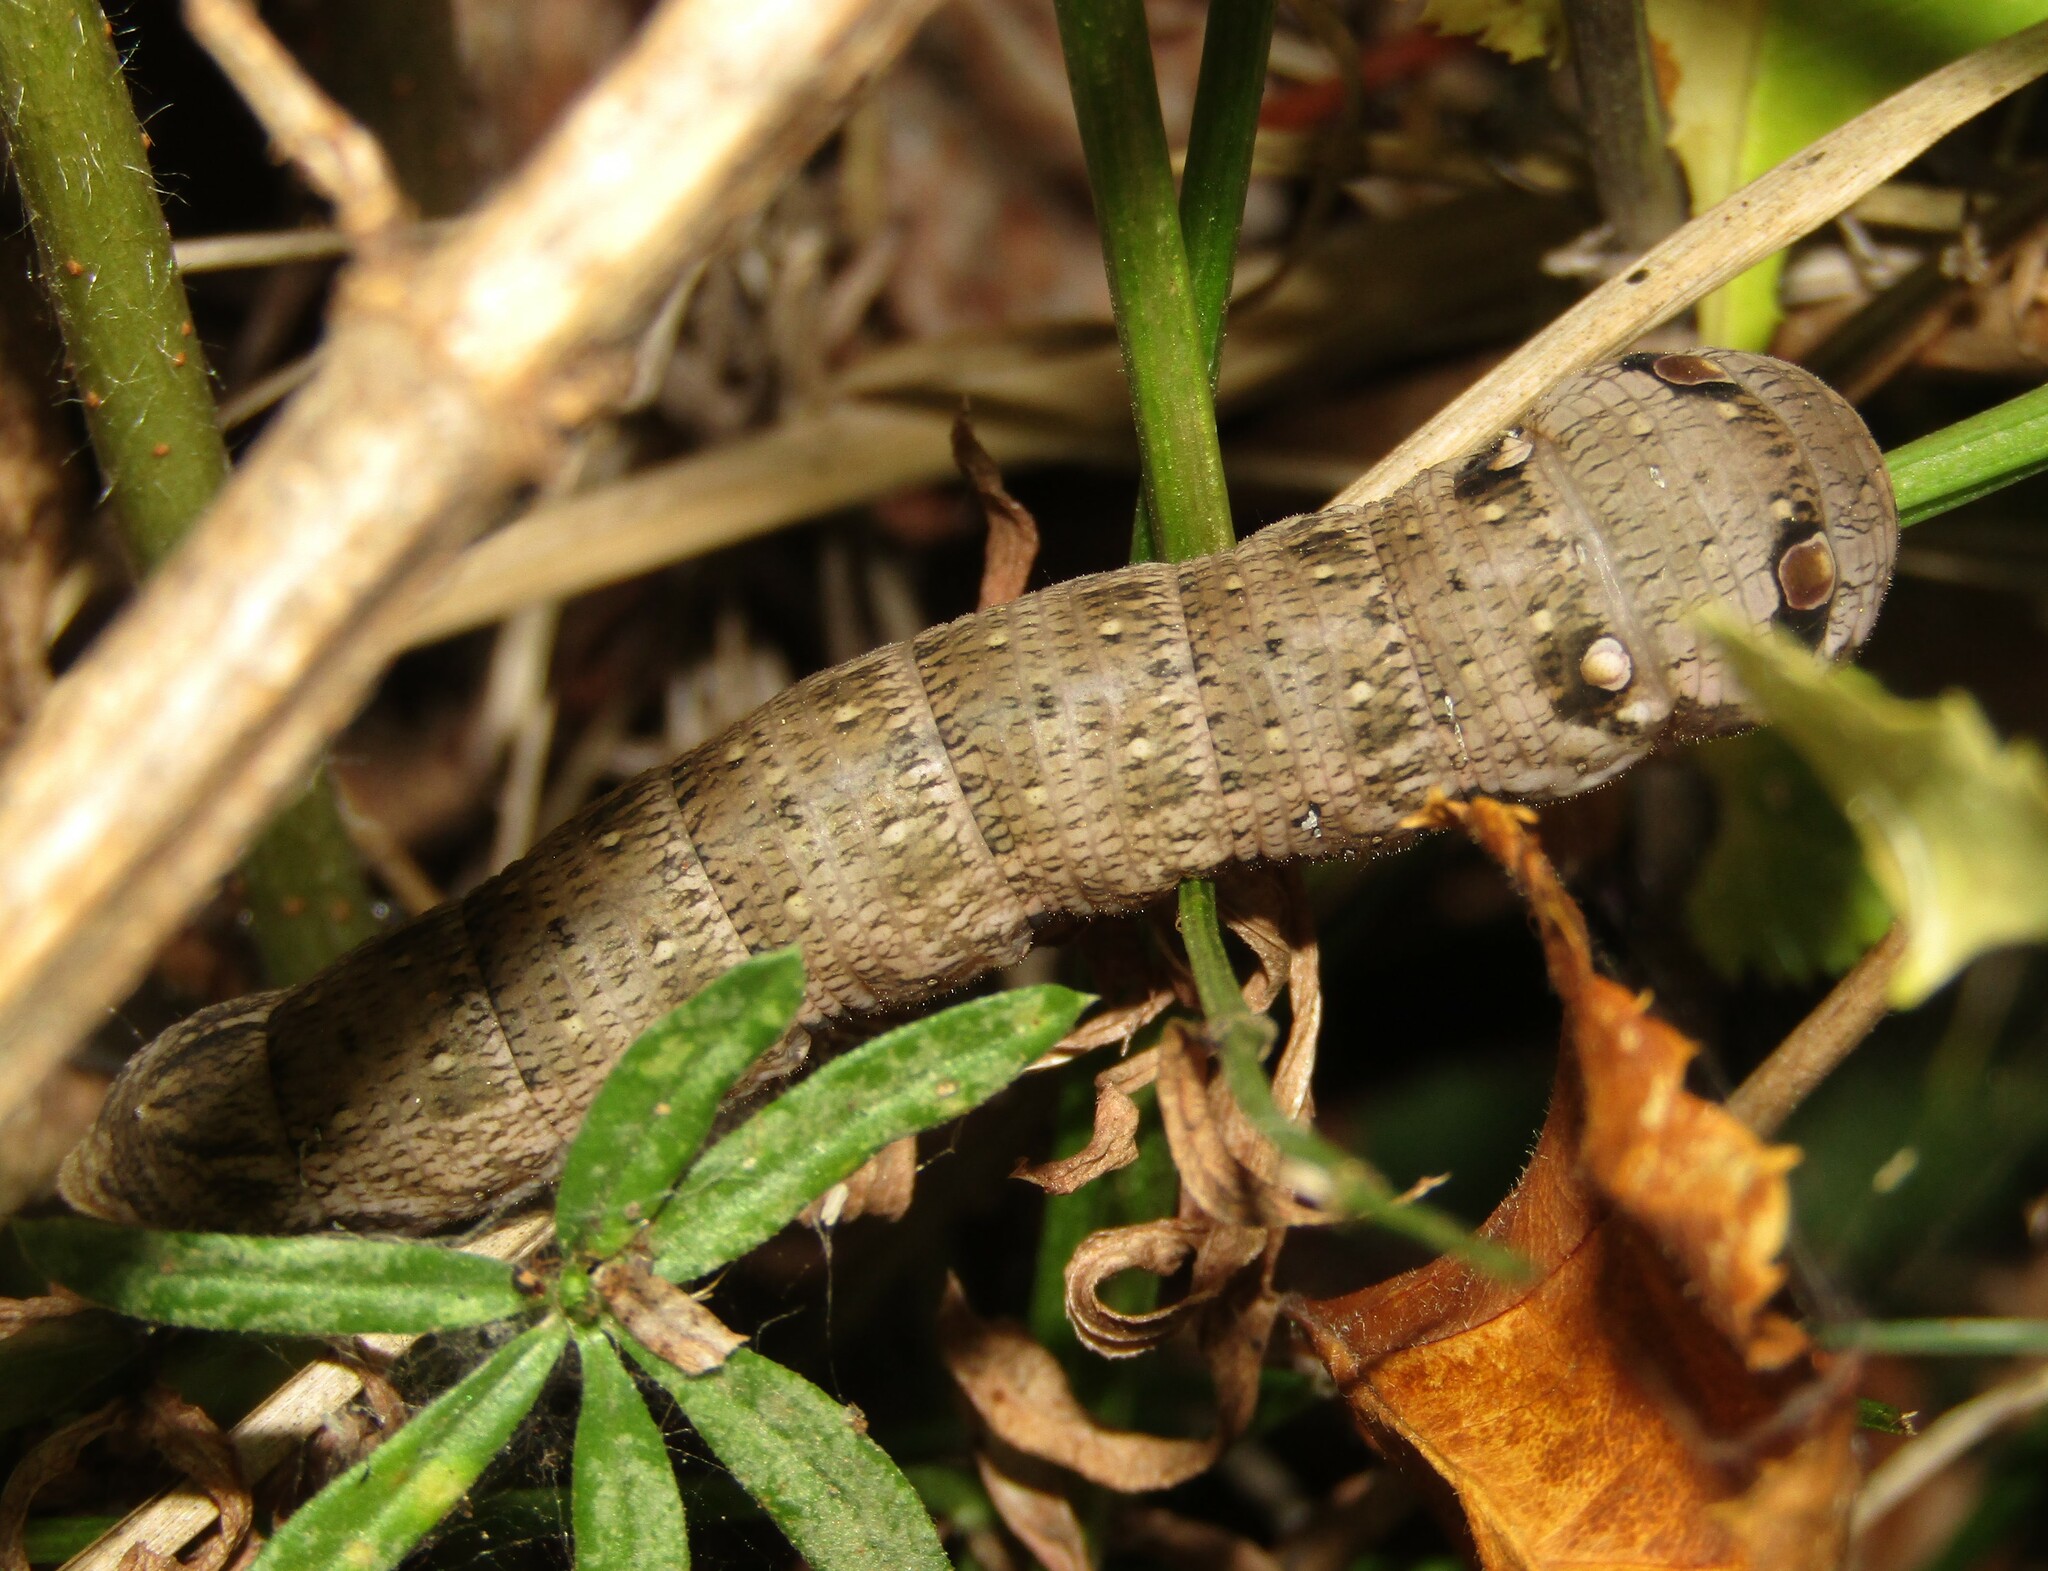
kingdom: Animalia
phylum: Arthropoda
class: Insecta
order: Lepidoptera
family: Sphingidae
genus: Deilephila
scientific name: Deilephila porcellus
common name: Small elephant hawk-moth
